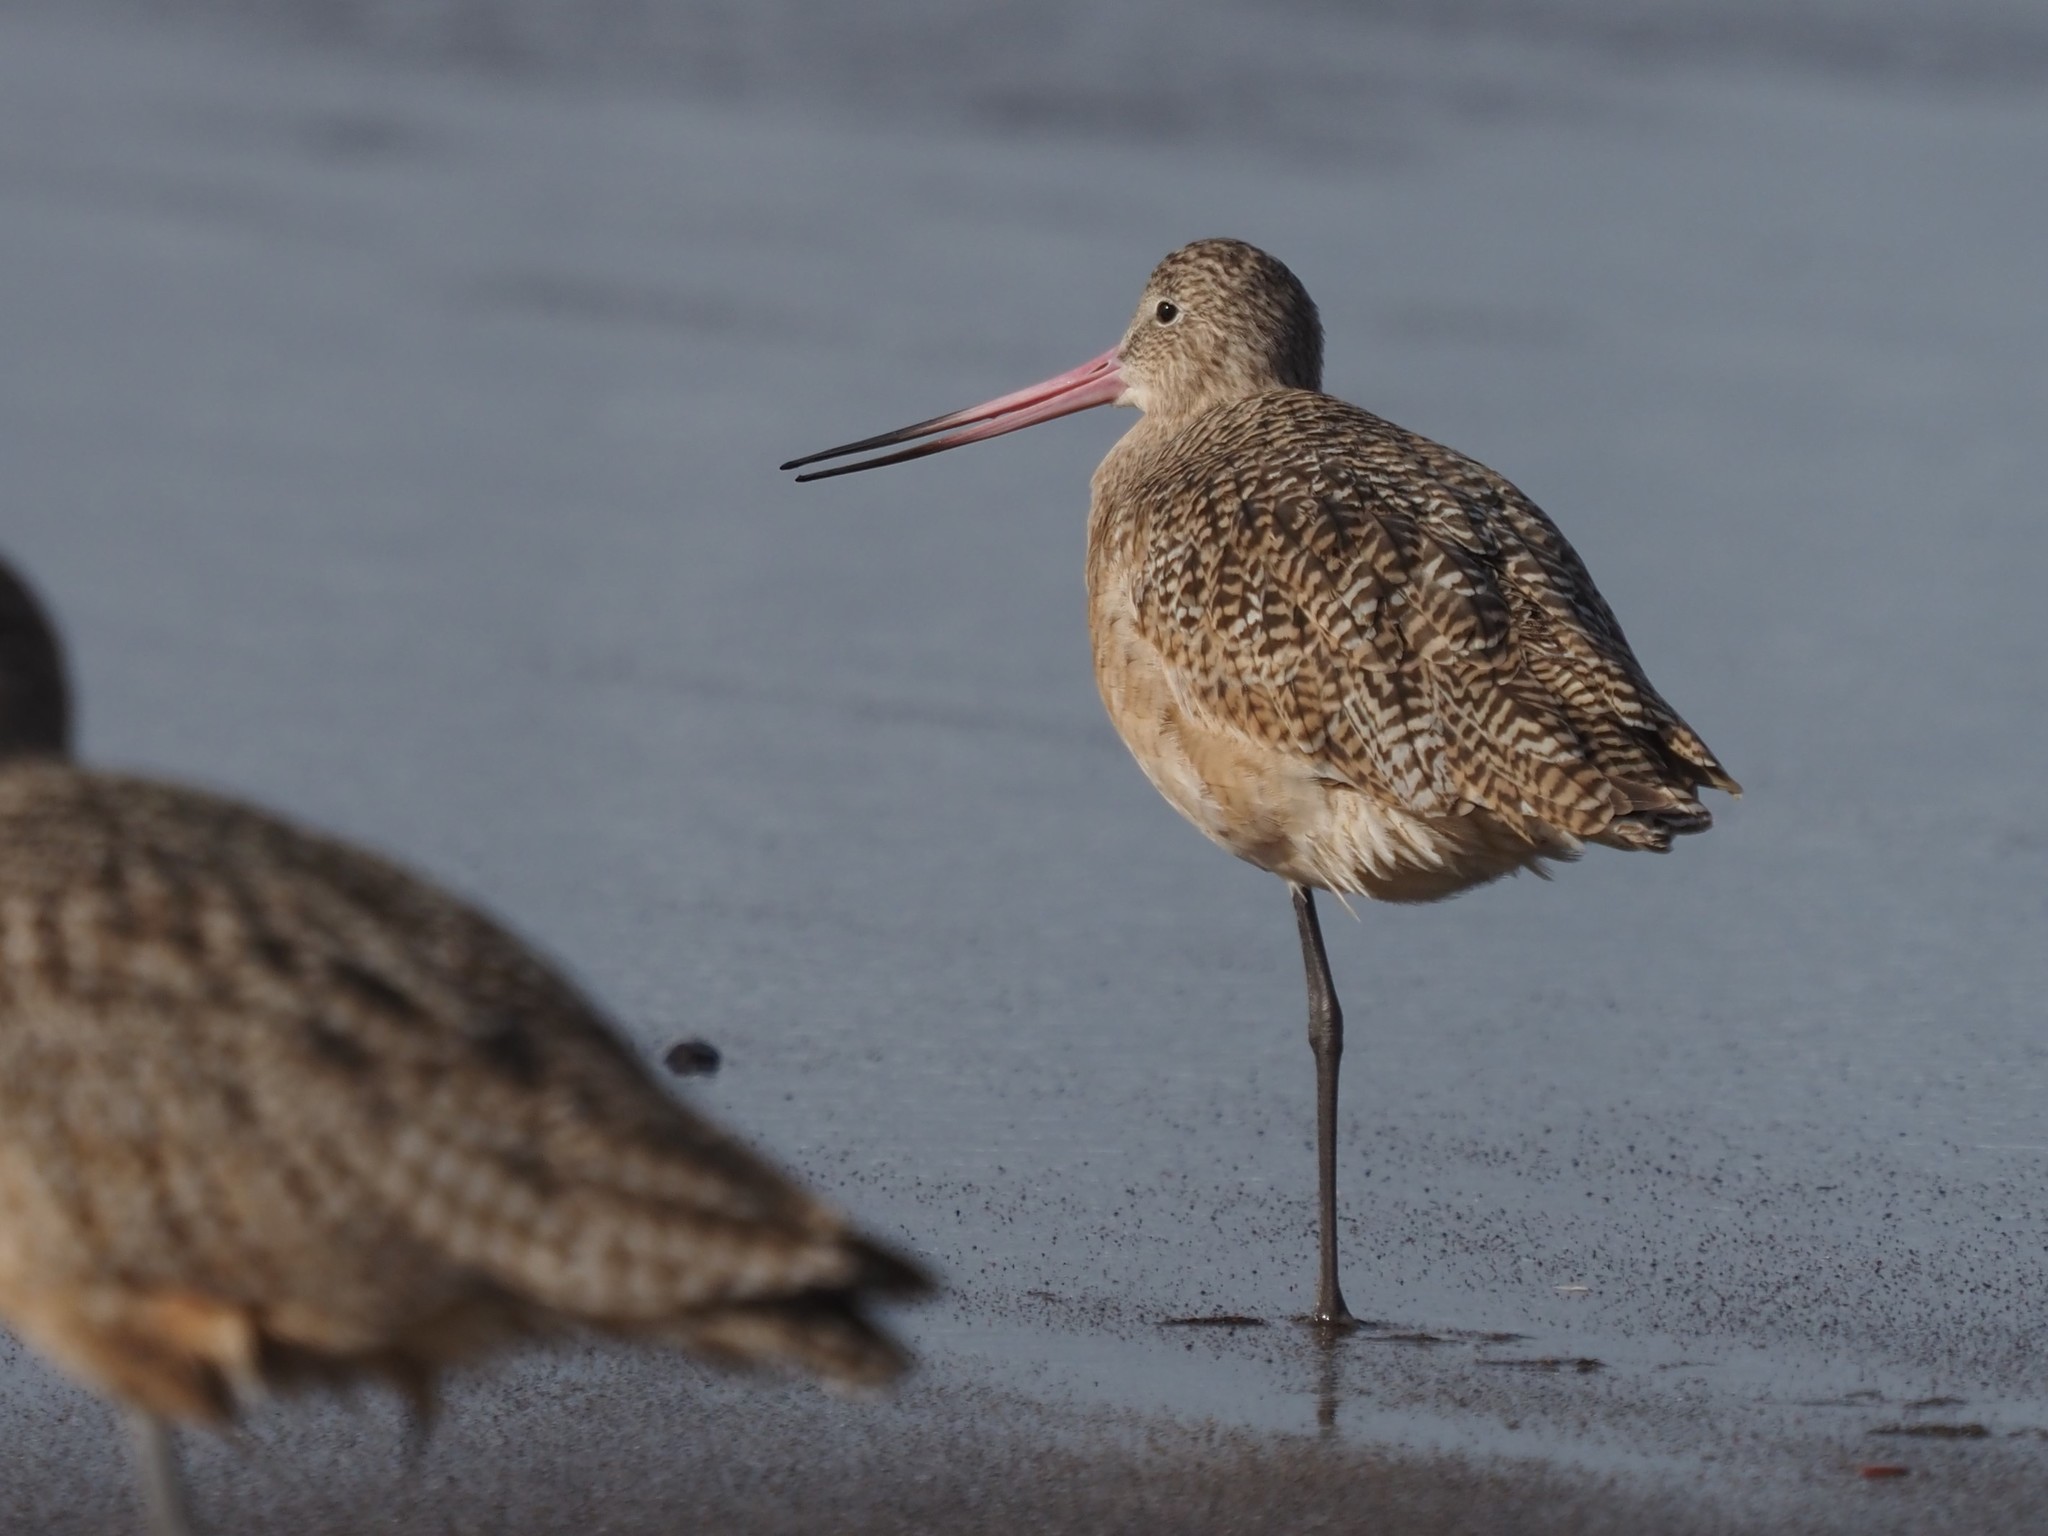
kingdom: Animalia
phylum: Chordata
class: Aves
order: Charadriiformes
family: Scolopacidae
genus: Limosa
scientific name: Limosa fedoa
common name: Marbled godwit
